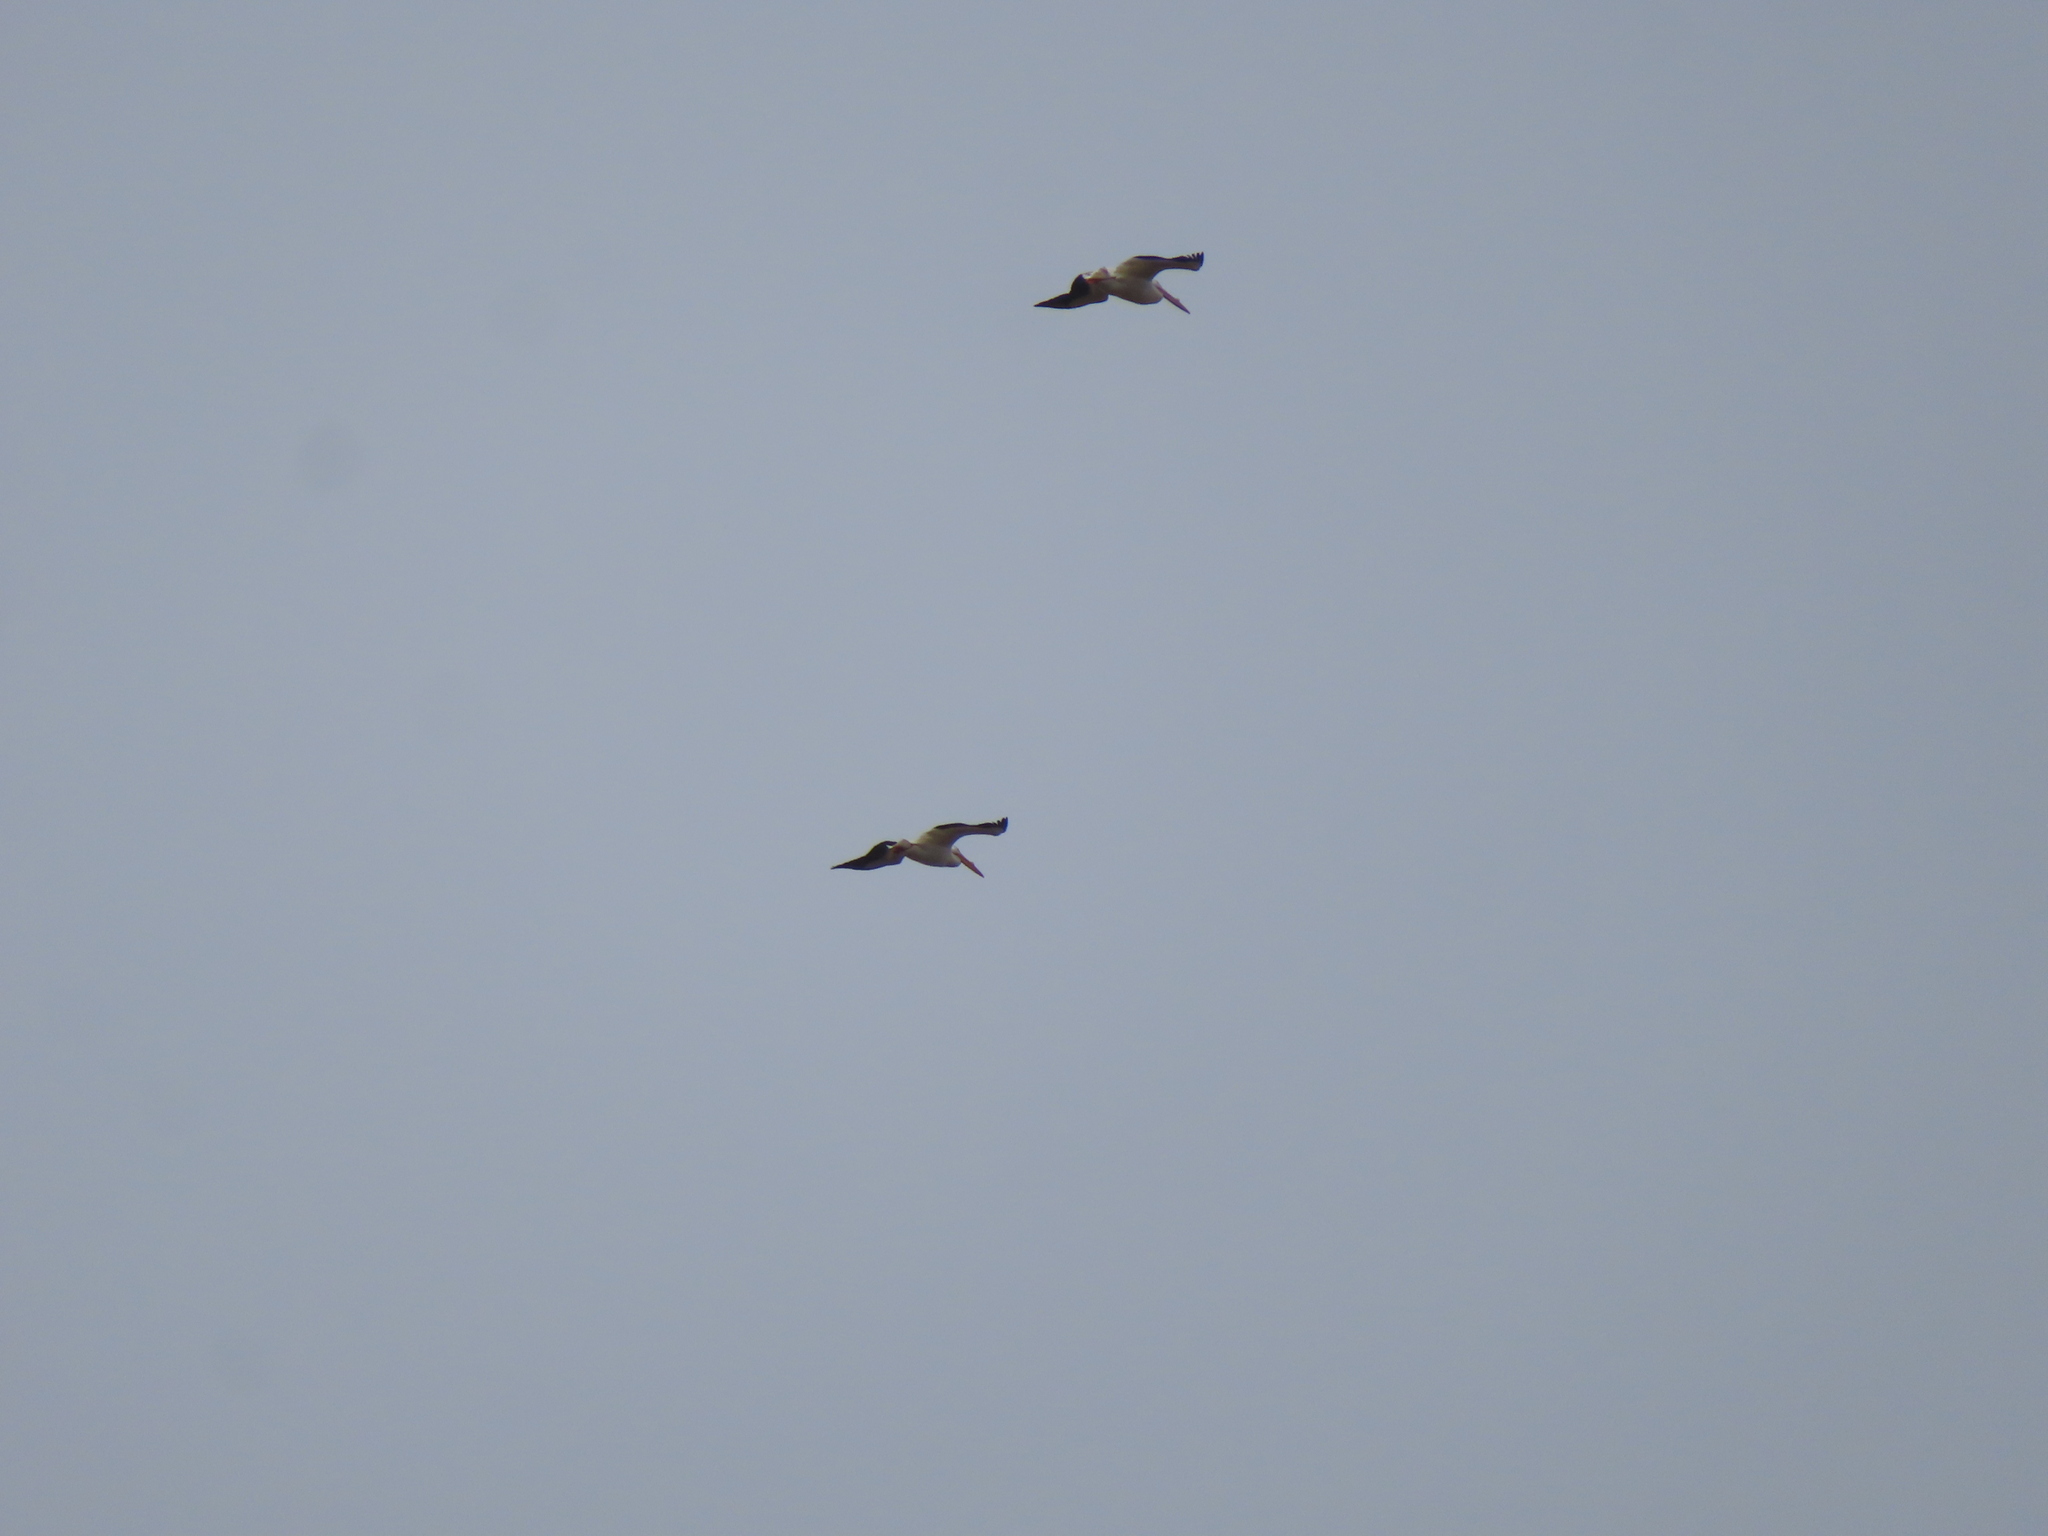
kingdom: Animalia
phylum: Chordata
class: Aves
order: Pelecaniformes
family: Pelecanidae
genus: Pelecanus
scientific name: Pelecanus erythrorhynchos
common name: American white pelican
